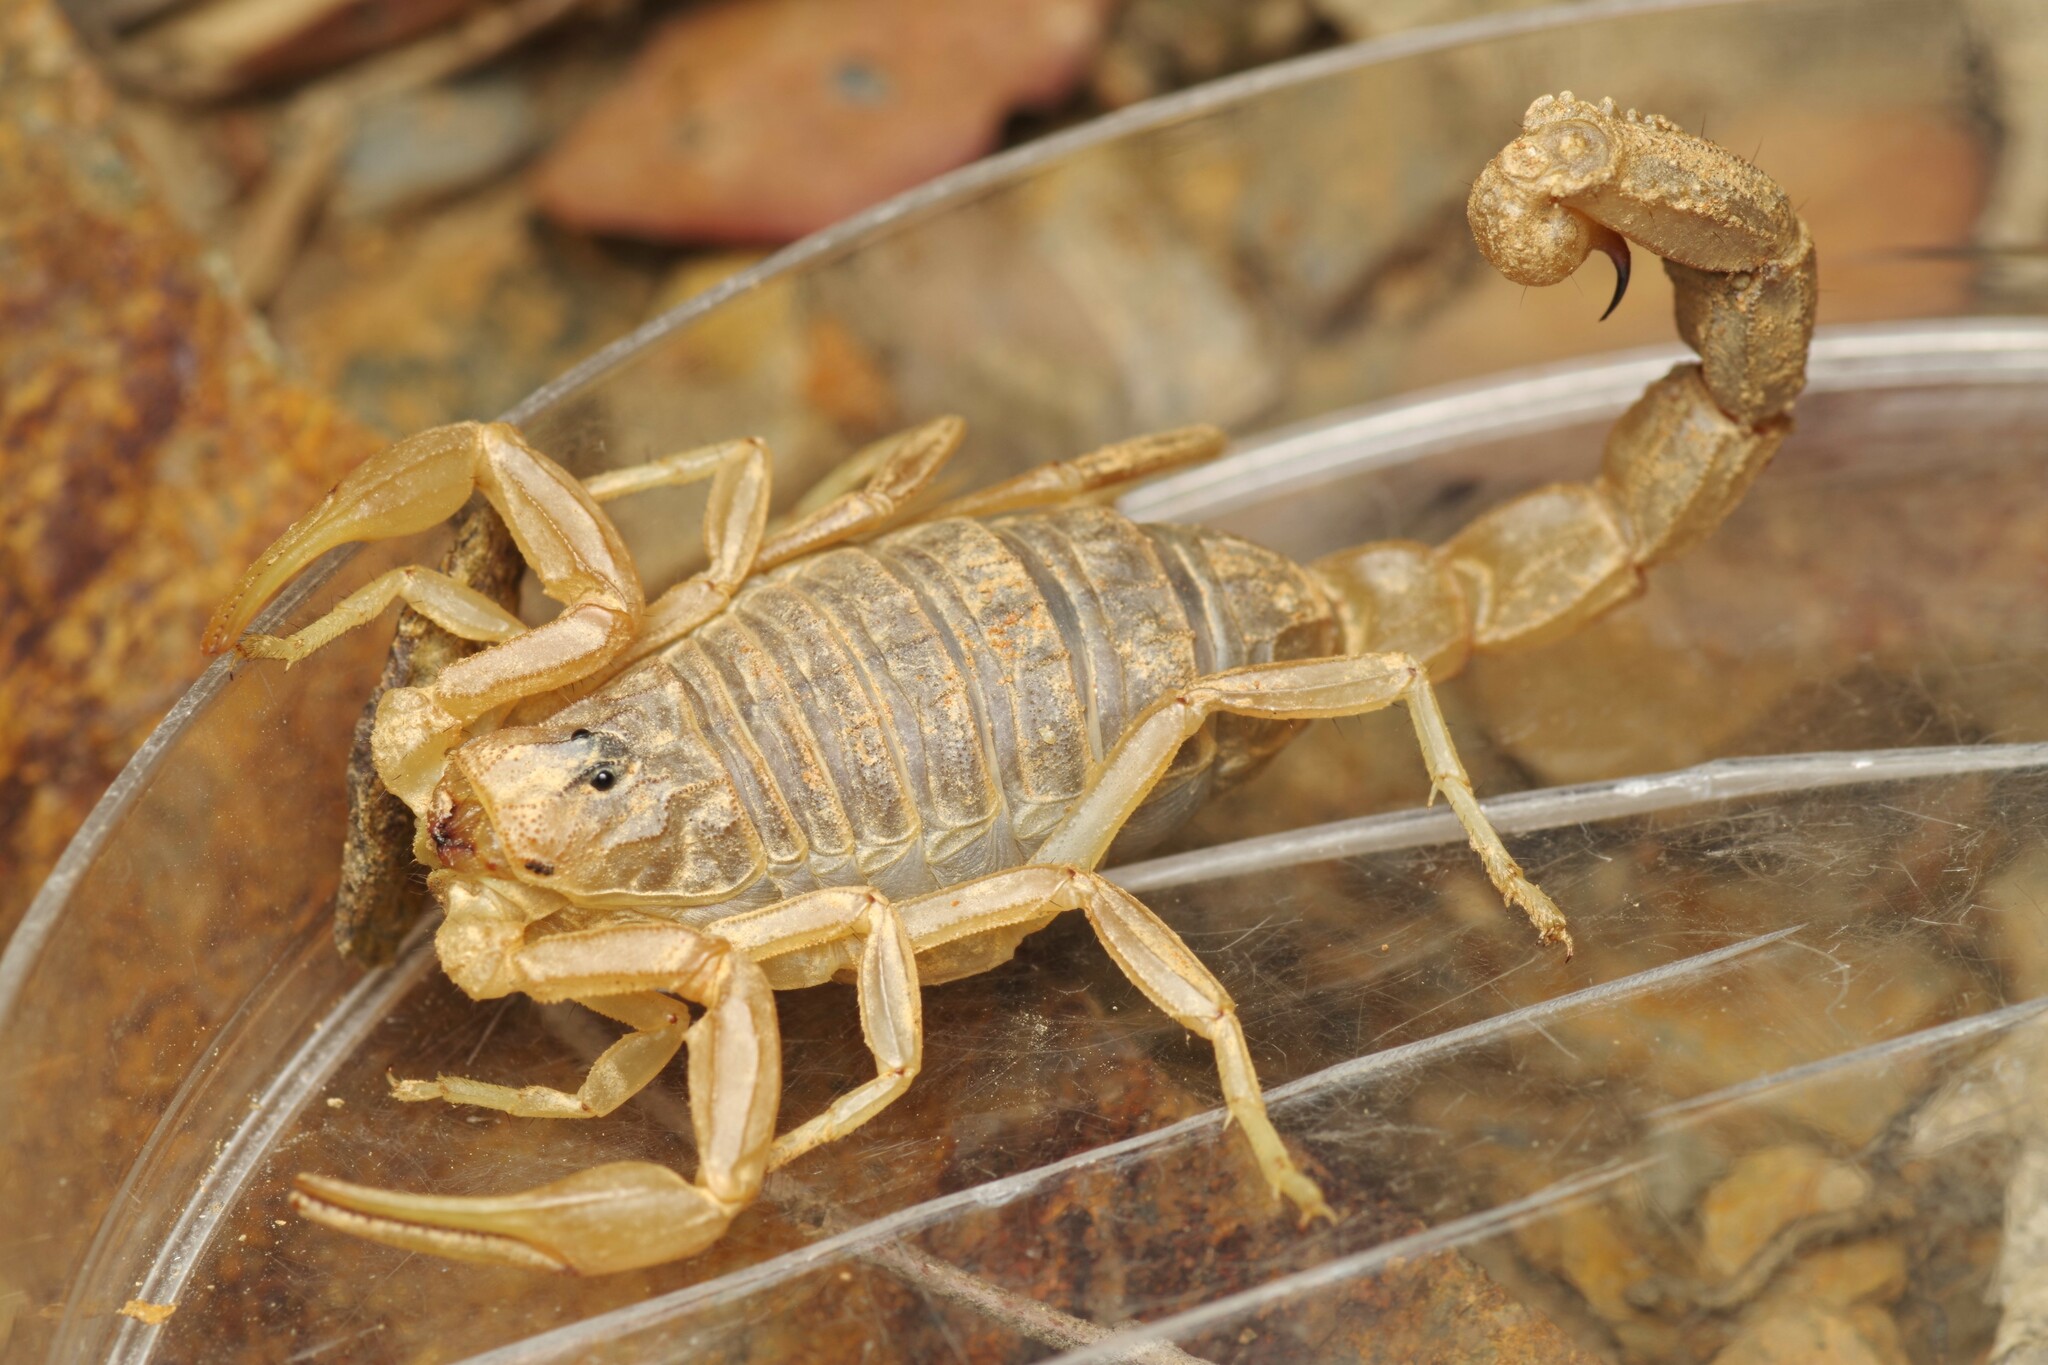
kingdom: Animalia
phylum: Arthropoda
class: Arachnida
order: Scorpiones
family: Buthidae
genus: Buthus
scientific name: Buthus pyrenaeus
